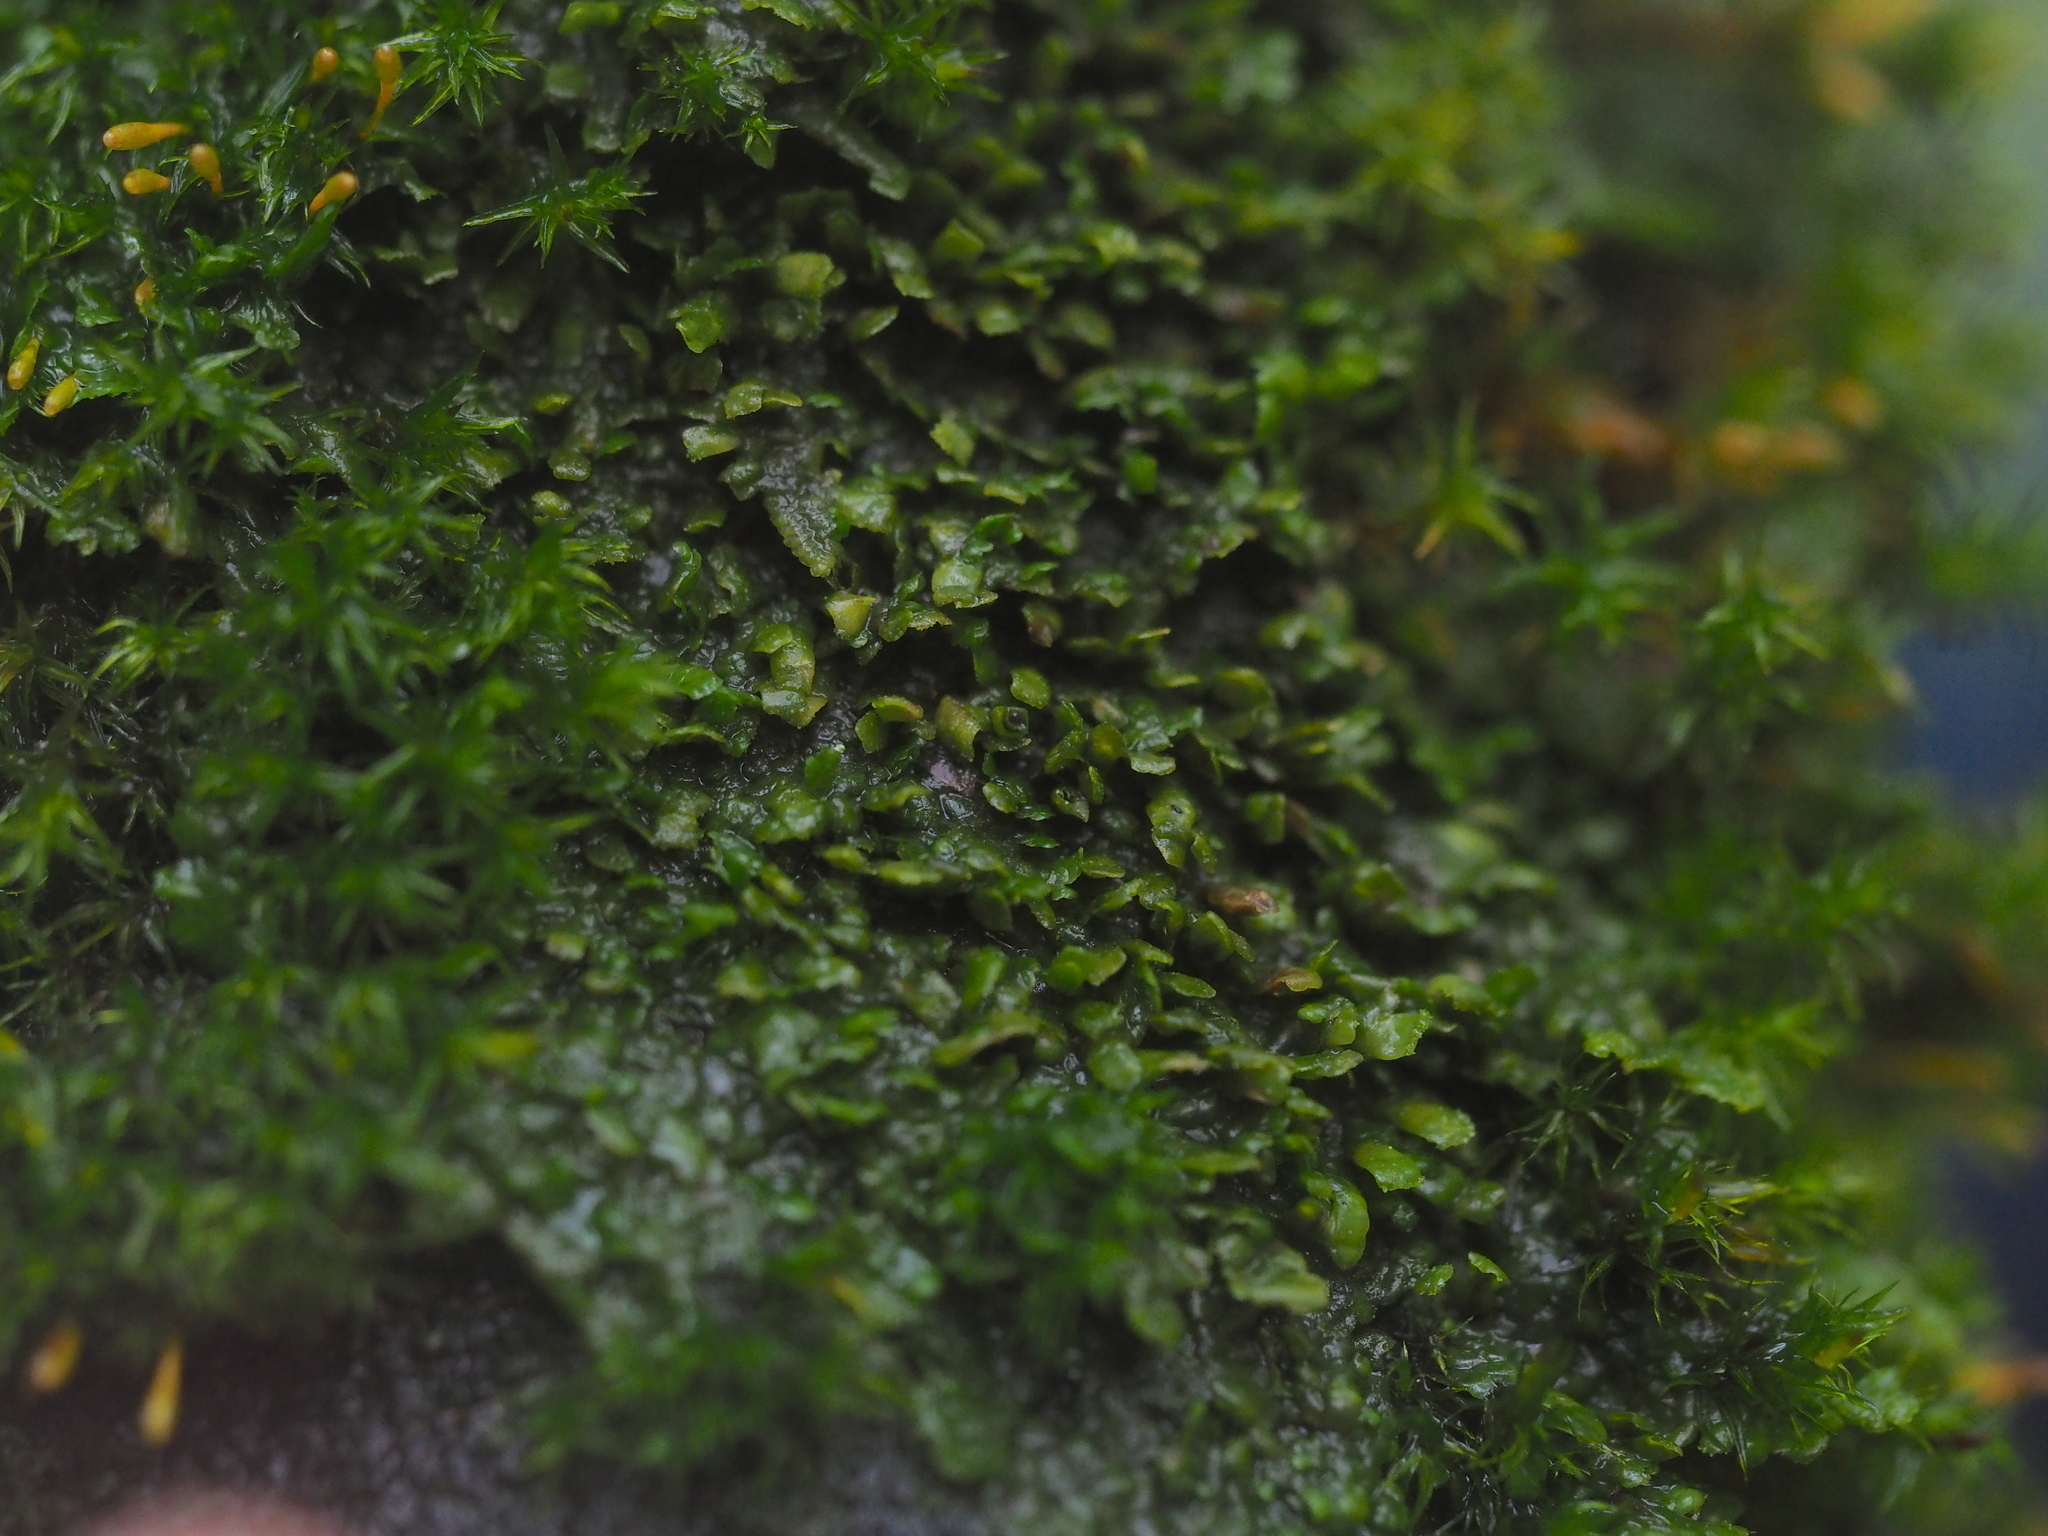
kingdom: Plantae
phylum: Marchantiophyta
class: Jungermanniopsida
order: Porellales
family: Radulaceae
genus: Radula
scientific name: Radula complanata
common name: Flat-leaved scalewort
